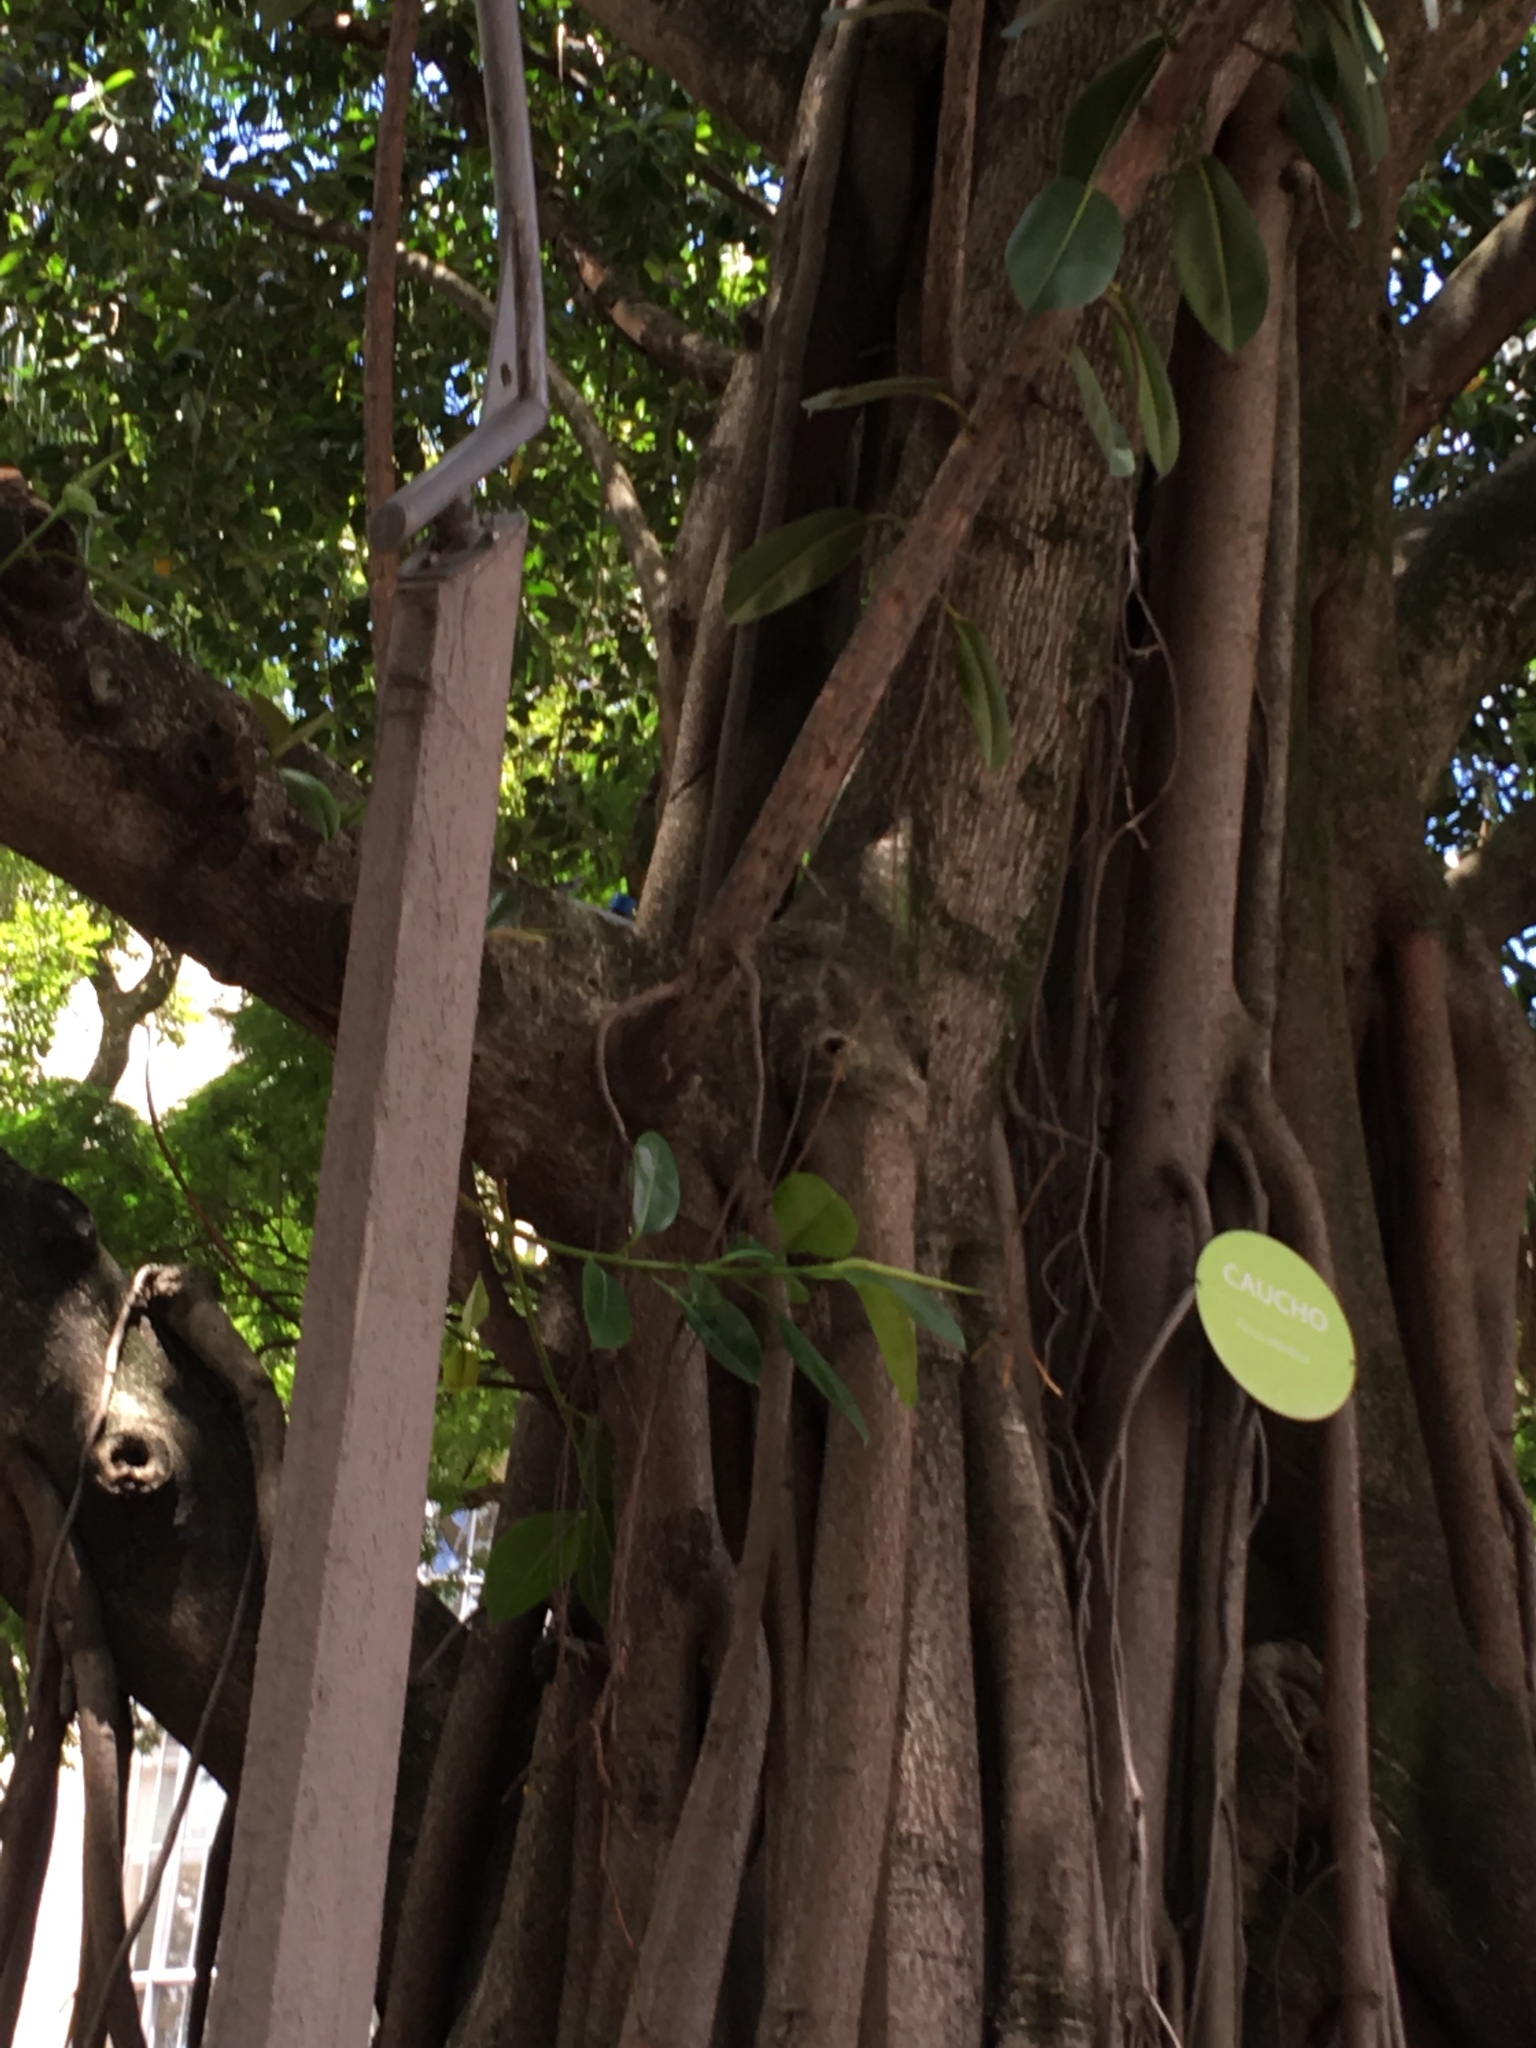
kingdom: Plantae
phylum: Tracheophyta
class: Magnoliopsida
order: Rosales
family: Moraceae
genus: Ficus
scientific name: Ficus elastica
